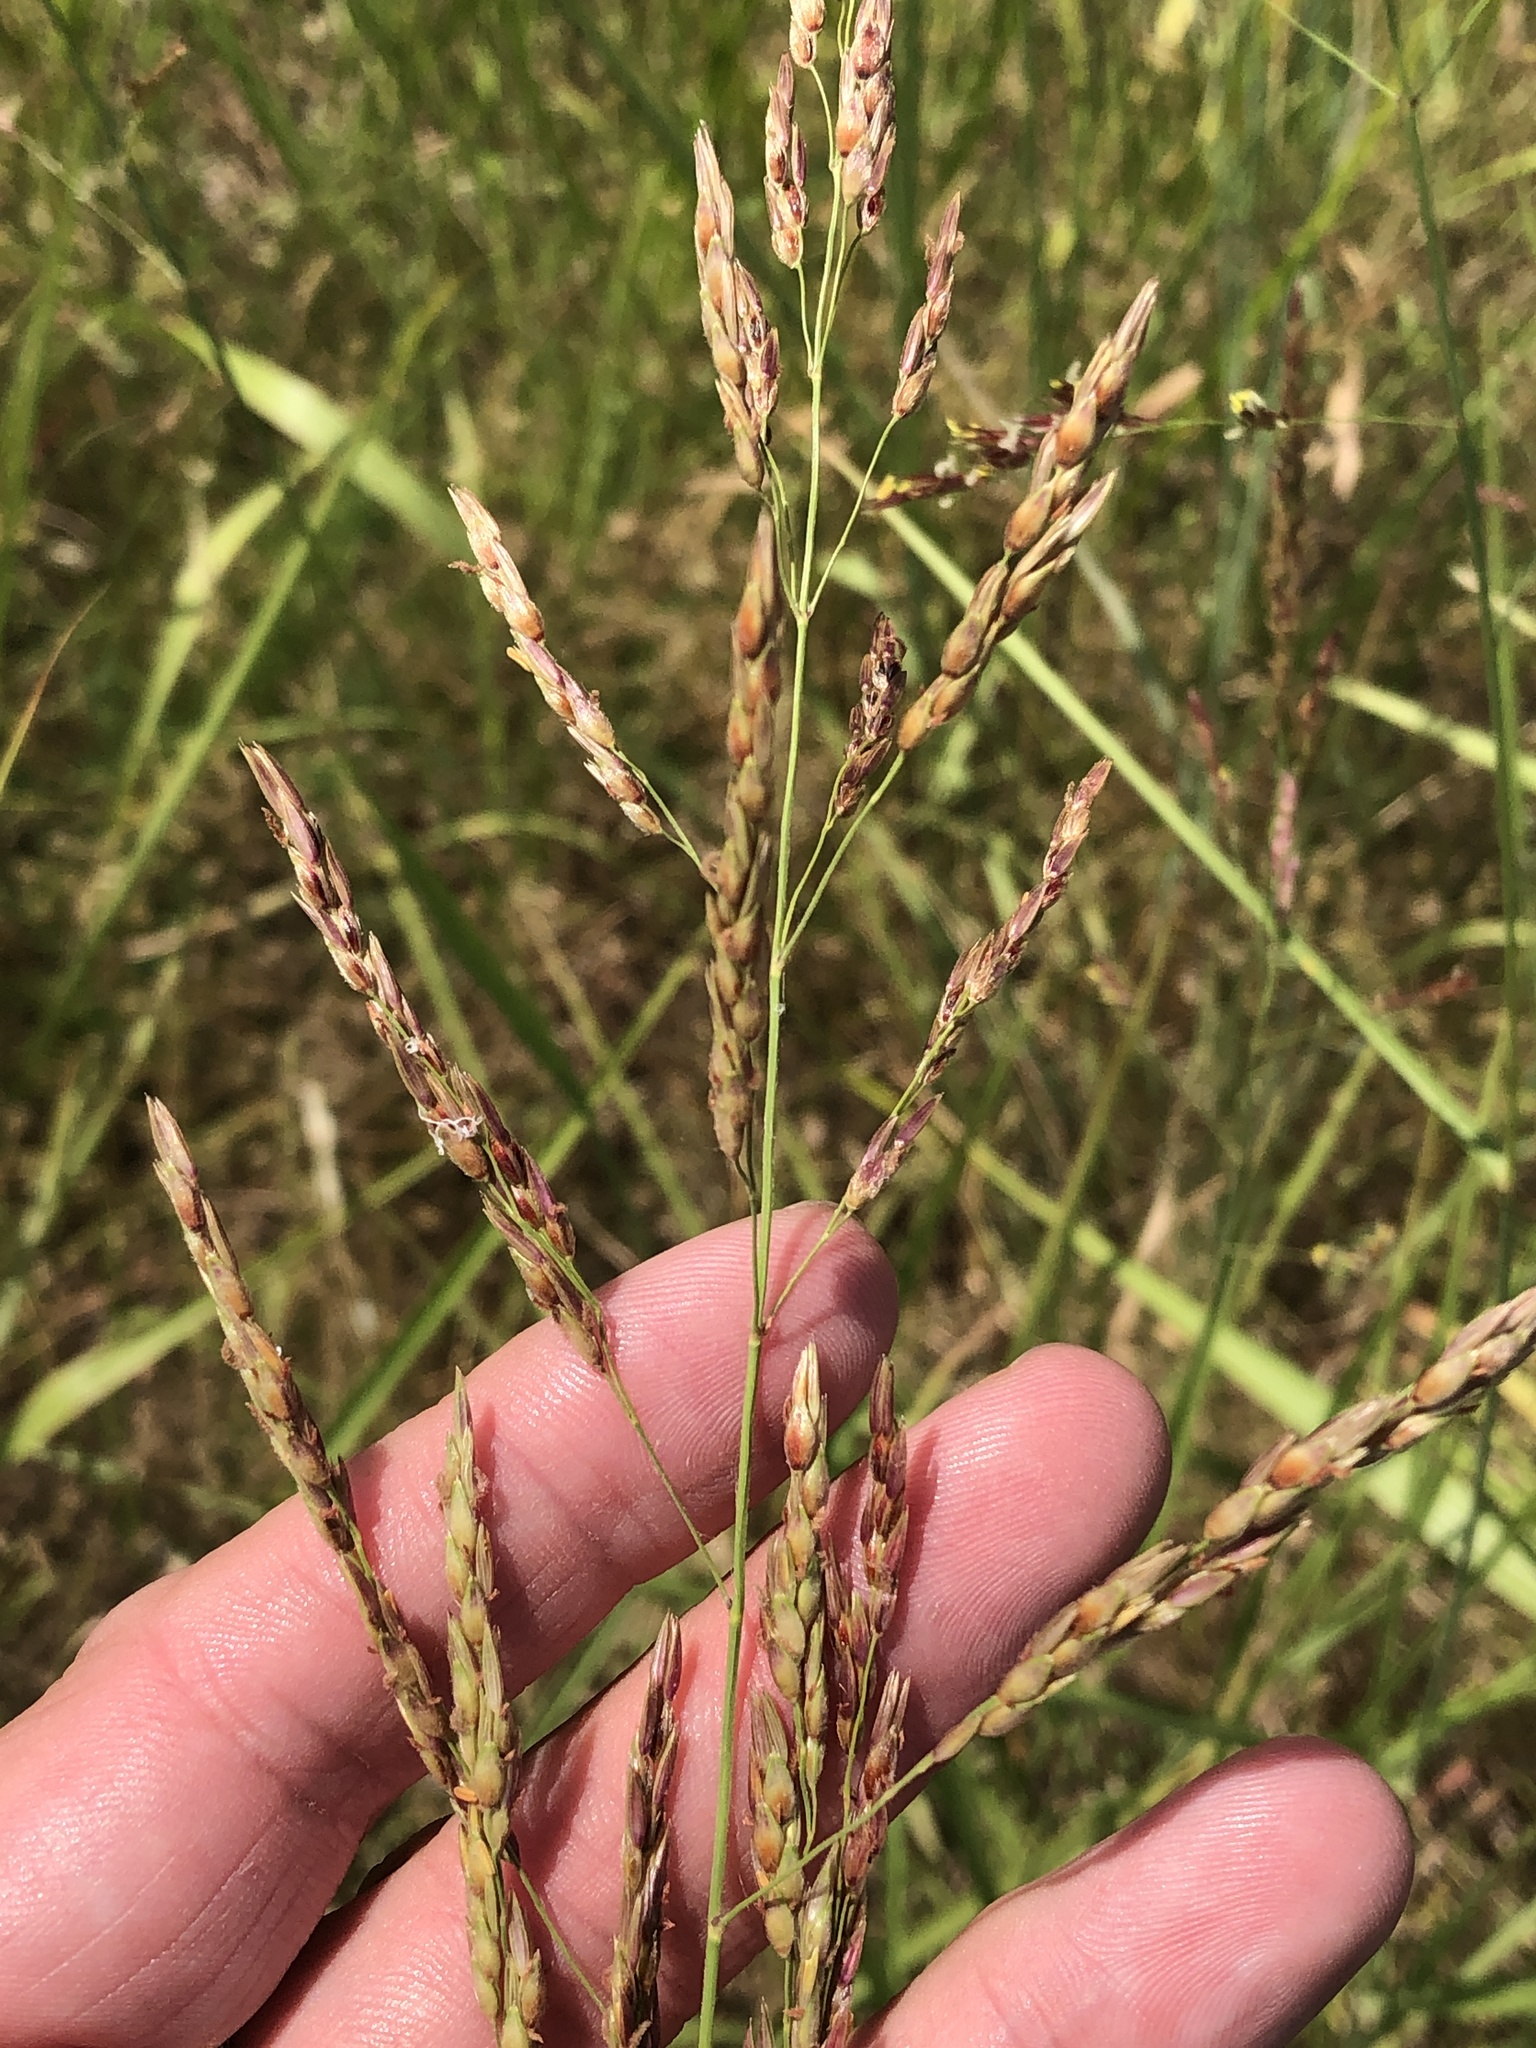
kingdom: Plantae
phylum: Tracheophyta
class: Liliopsida
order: Poales
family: Poaceae
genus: Sorghum
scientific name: Sorghum halepense
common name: Johnson-grass
